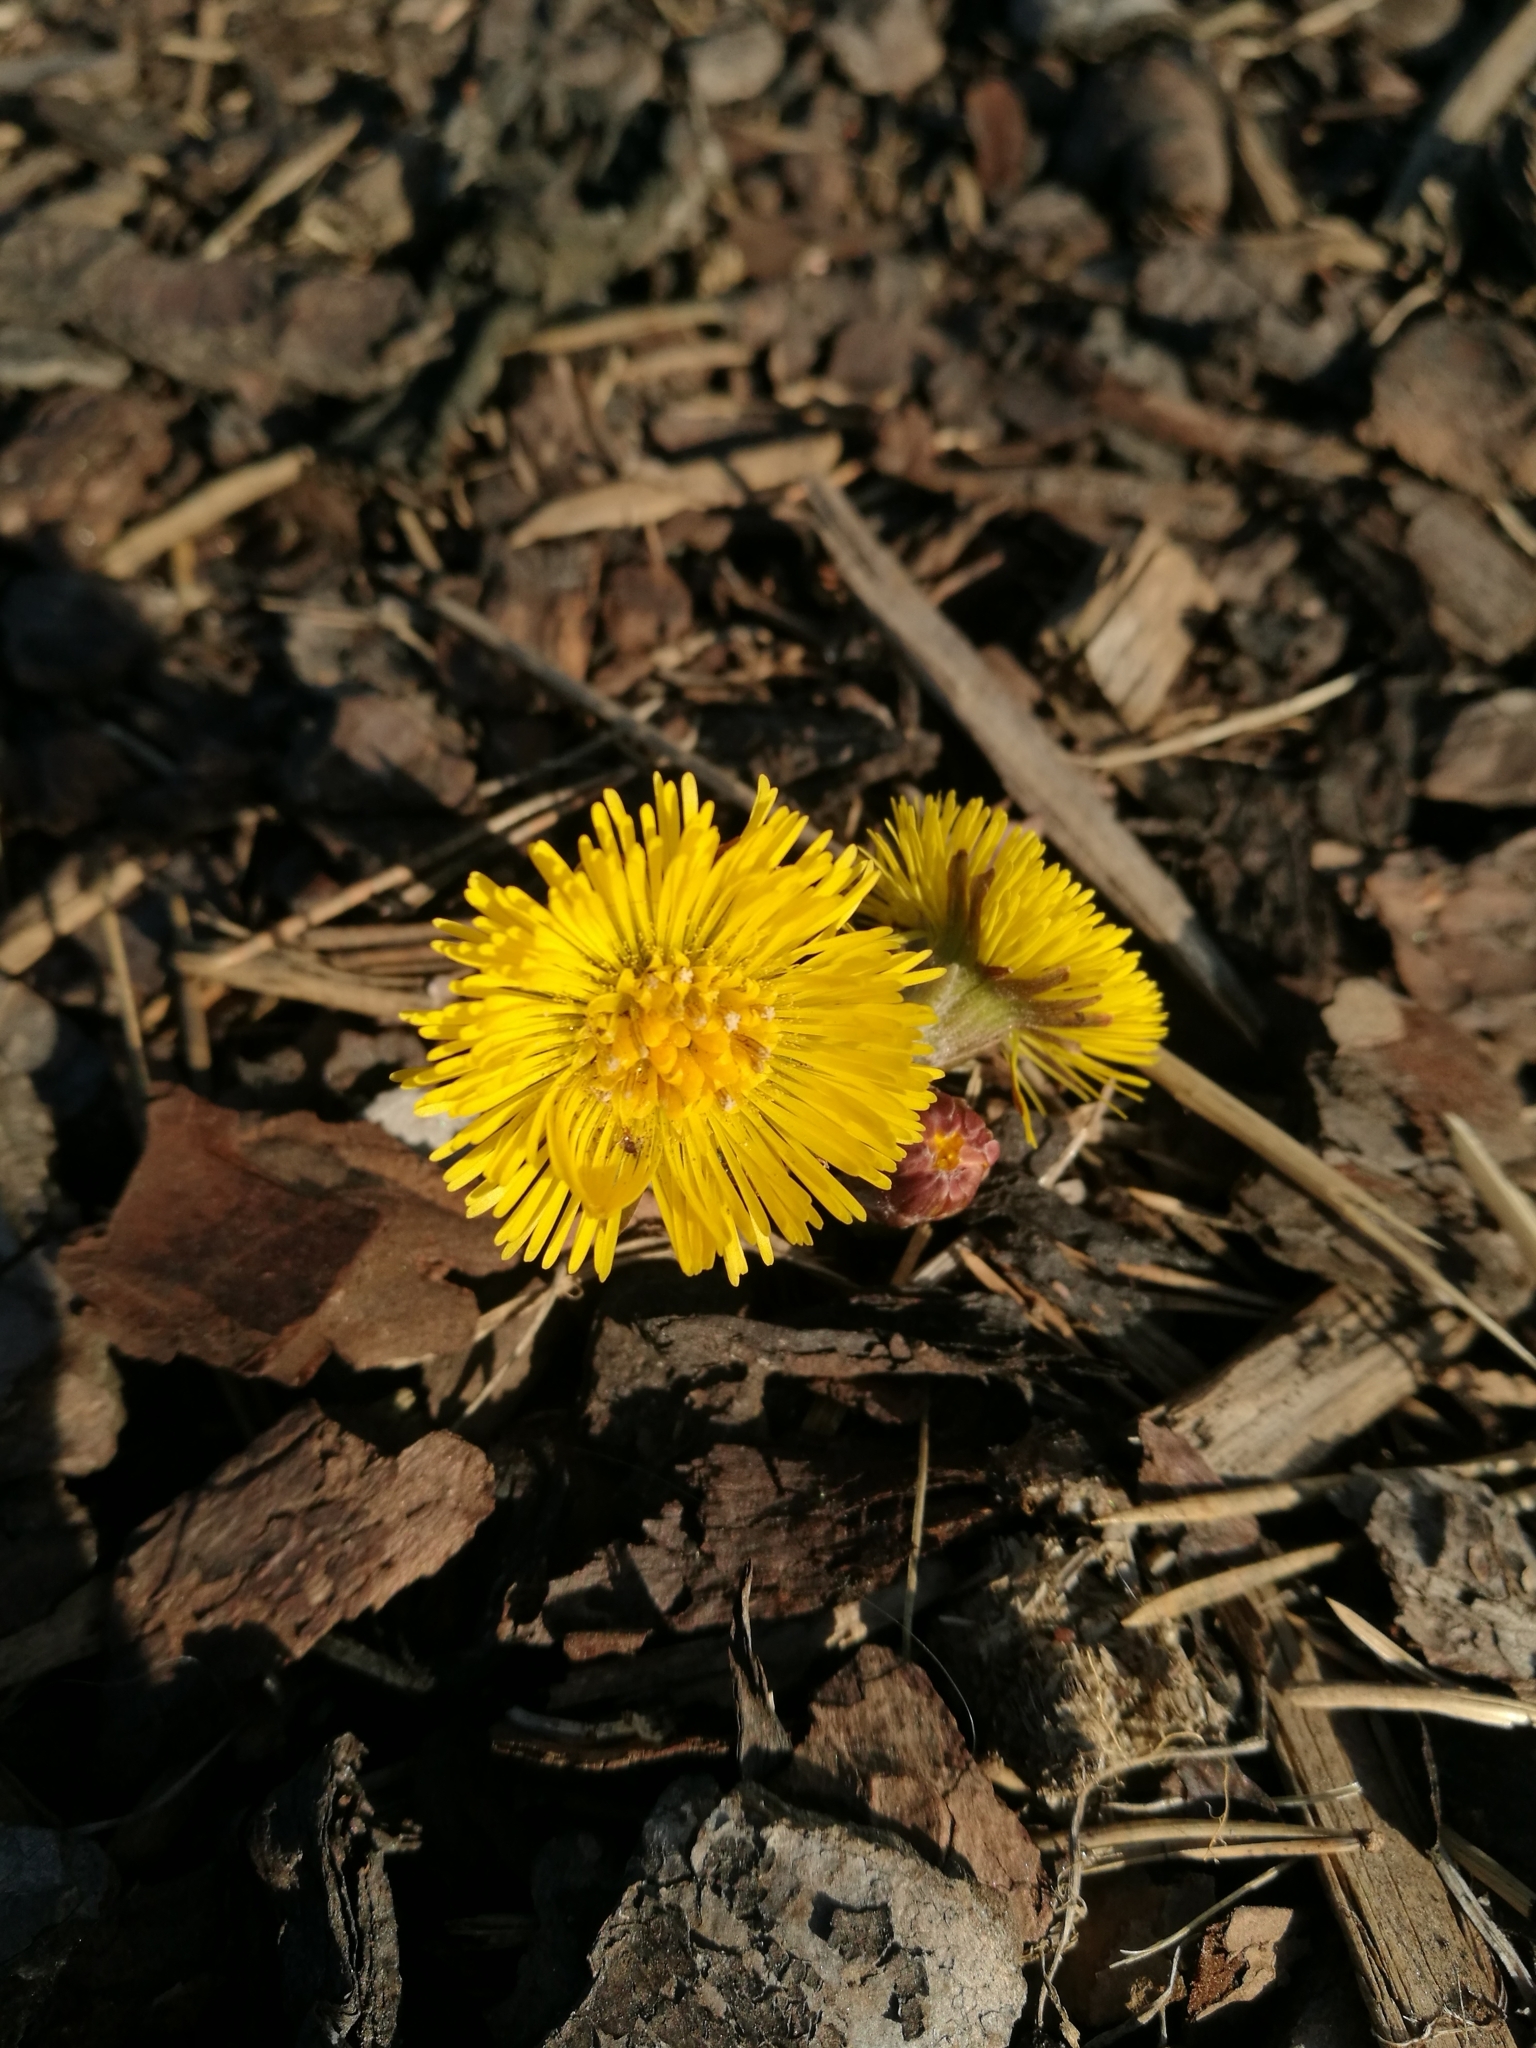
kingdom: Plantae
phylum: Tracheophyta
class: Magnoliopsida
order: Asterales
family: Asteraceae
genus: Tussilago
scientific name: Tussilago farfara
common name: Coltsfoot
